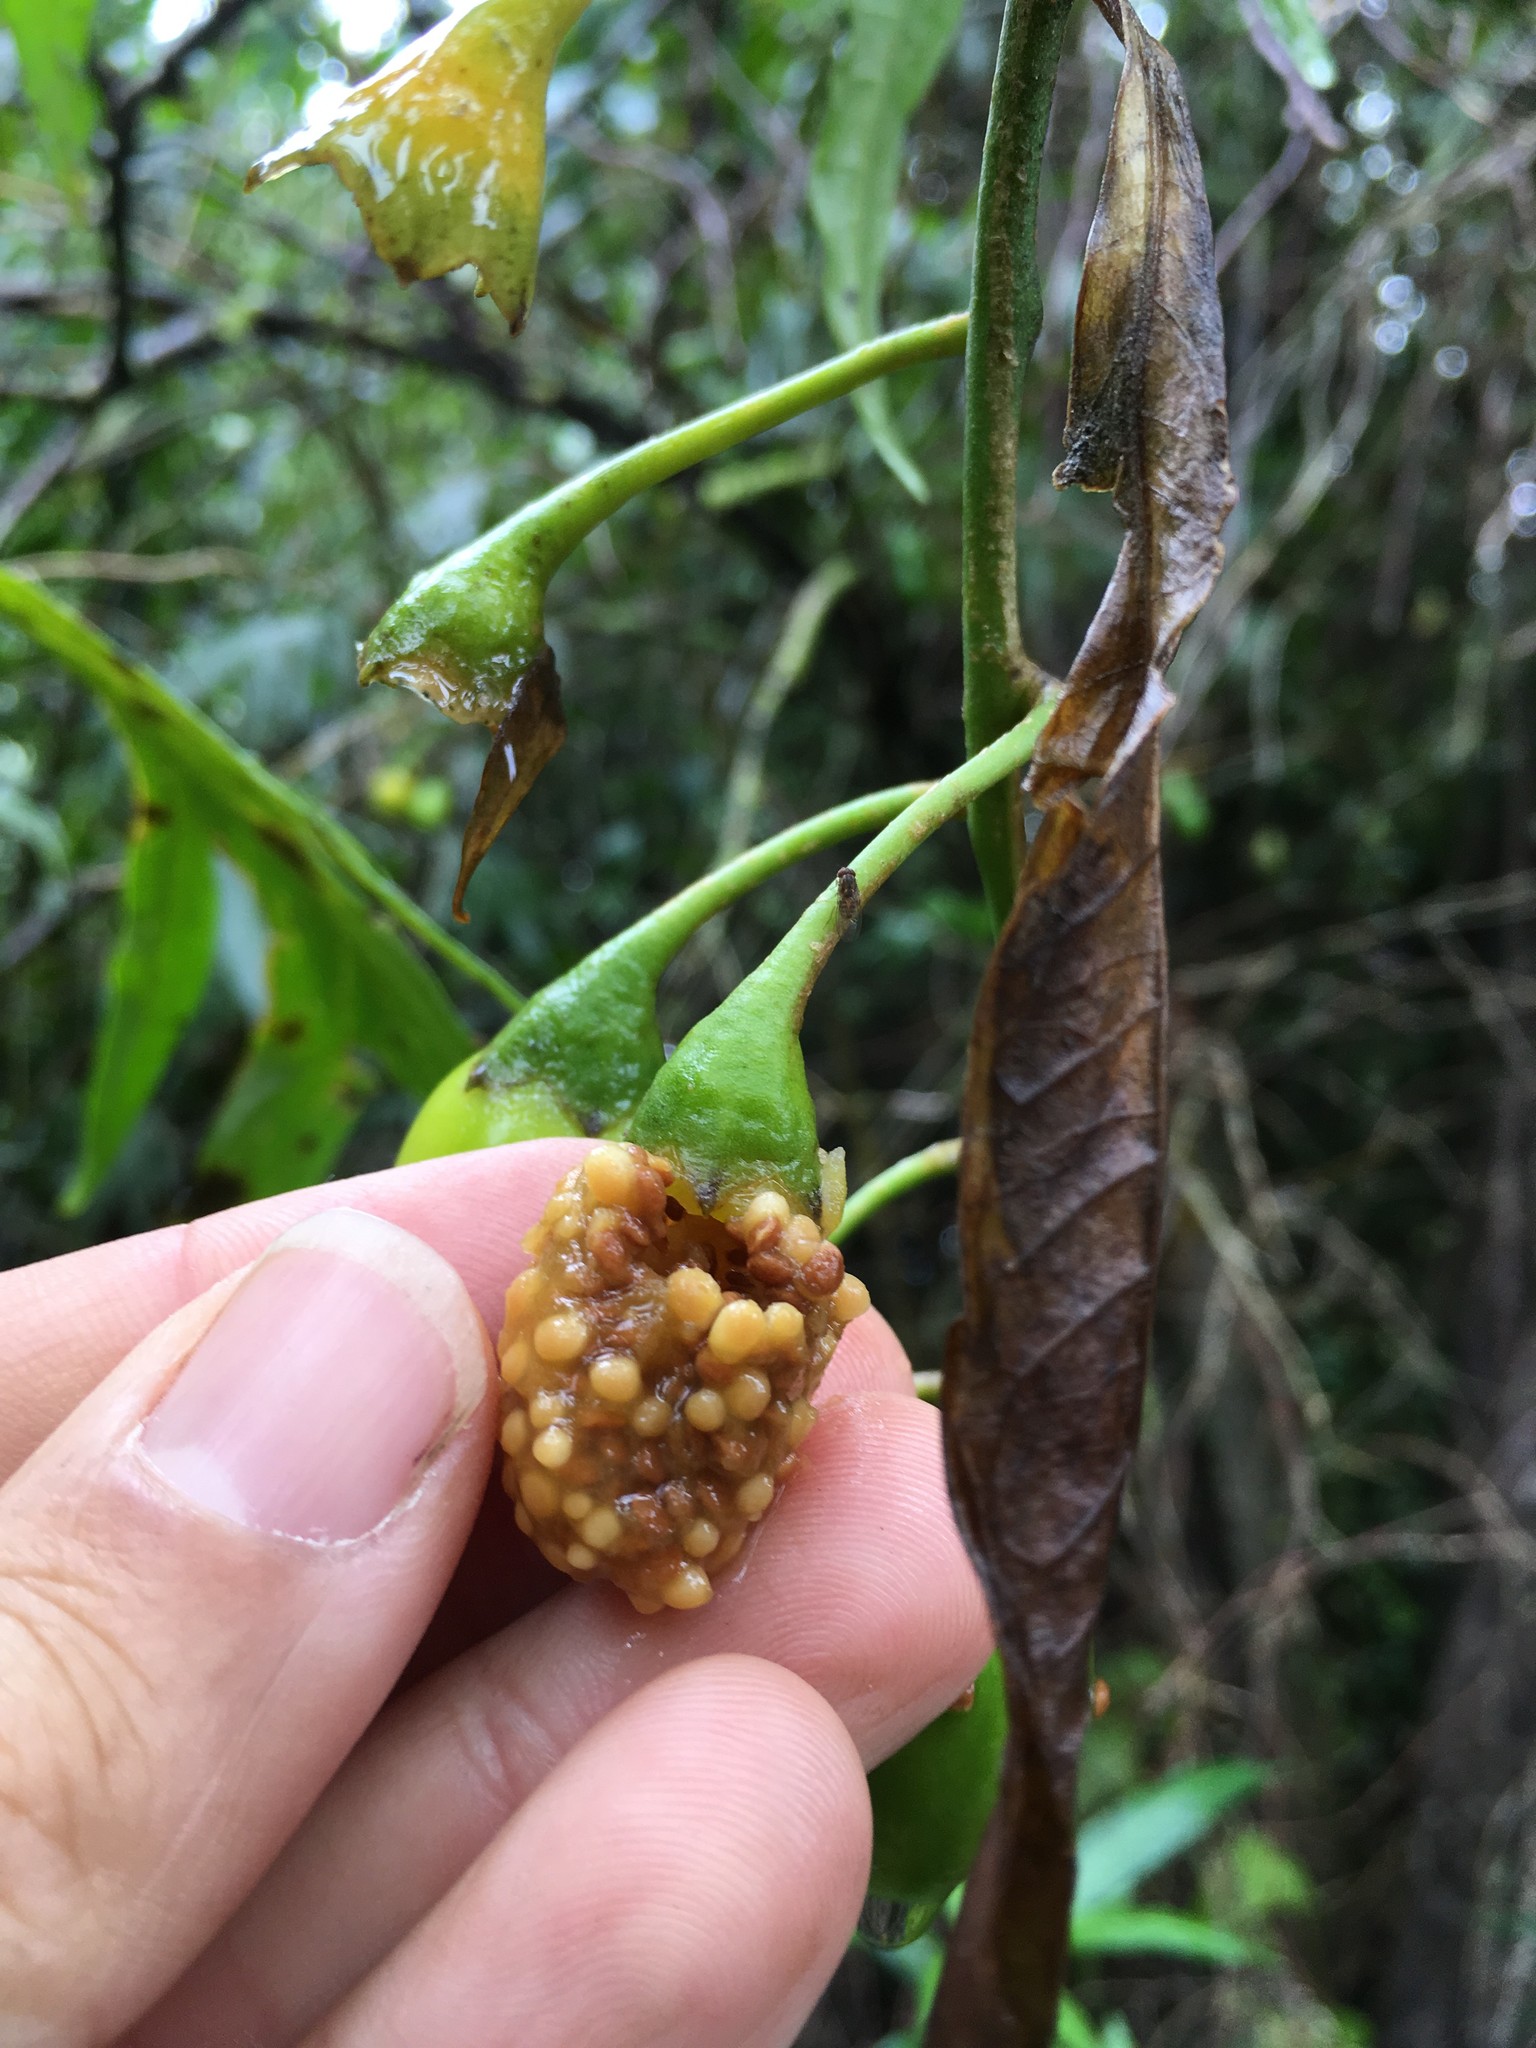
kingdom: Plantae
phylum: Tracheophyta
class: Magnoliopsida
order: Solanales
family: Solanaceae
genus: Solanum
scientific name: Solanum laciniatum
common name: Kangaroo-apple
